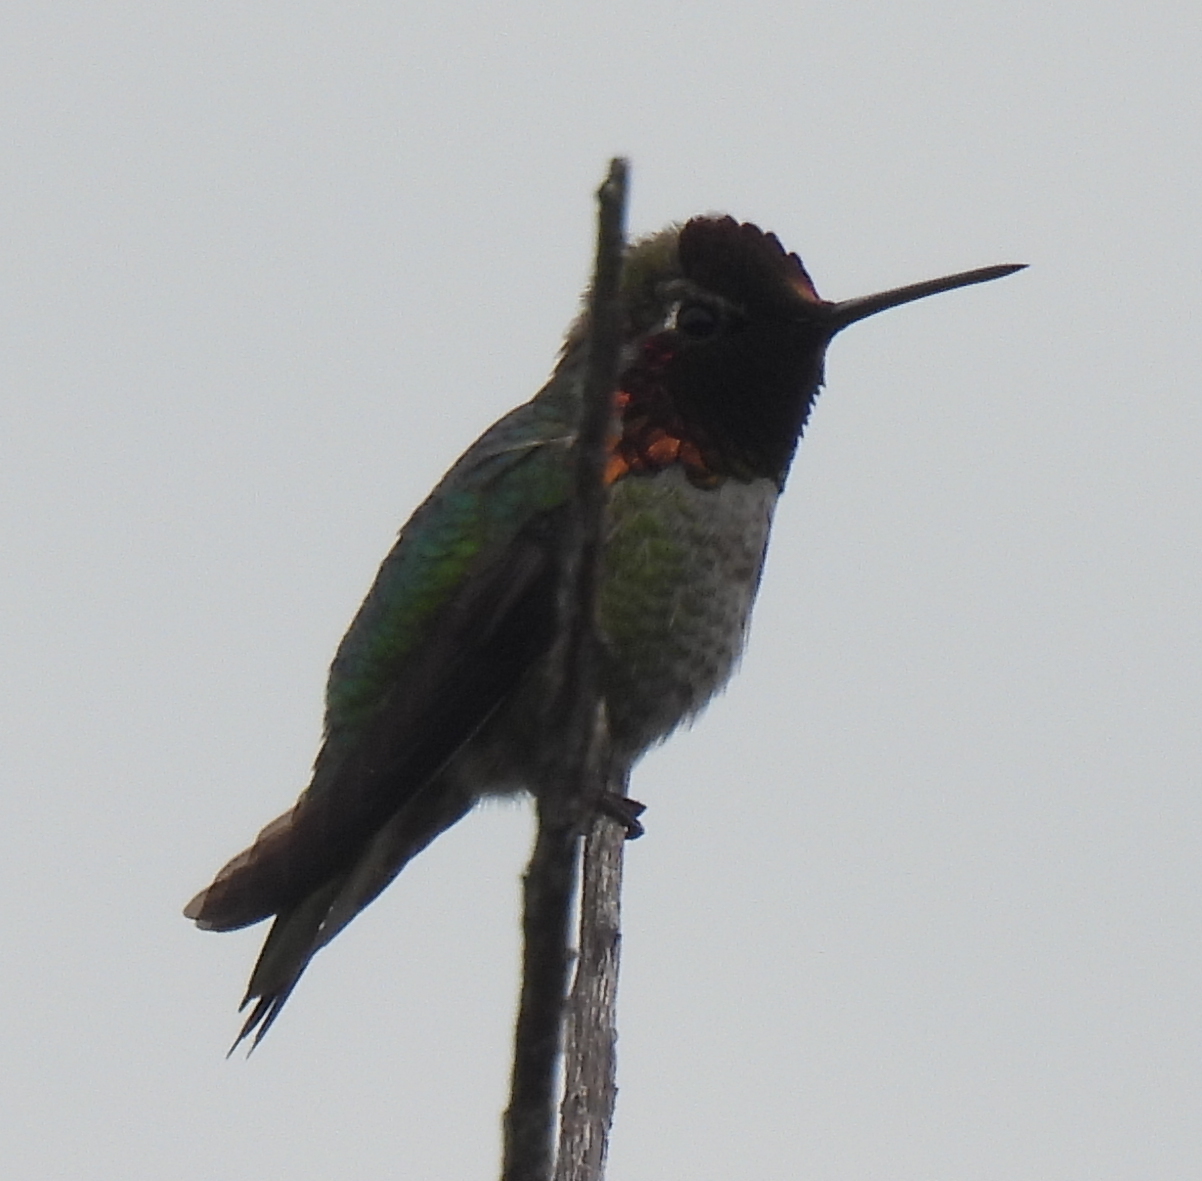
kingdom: Animalia
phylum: Chordata
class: Aves
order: Apodiformes
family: Trochilidae
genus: Calypte
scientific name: Calypte anna
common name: Anna's hummingbird
